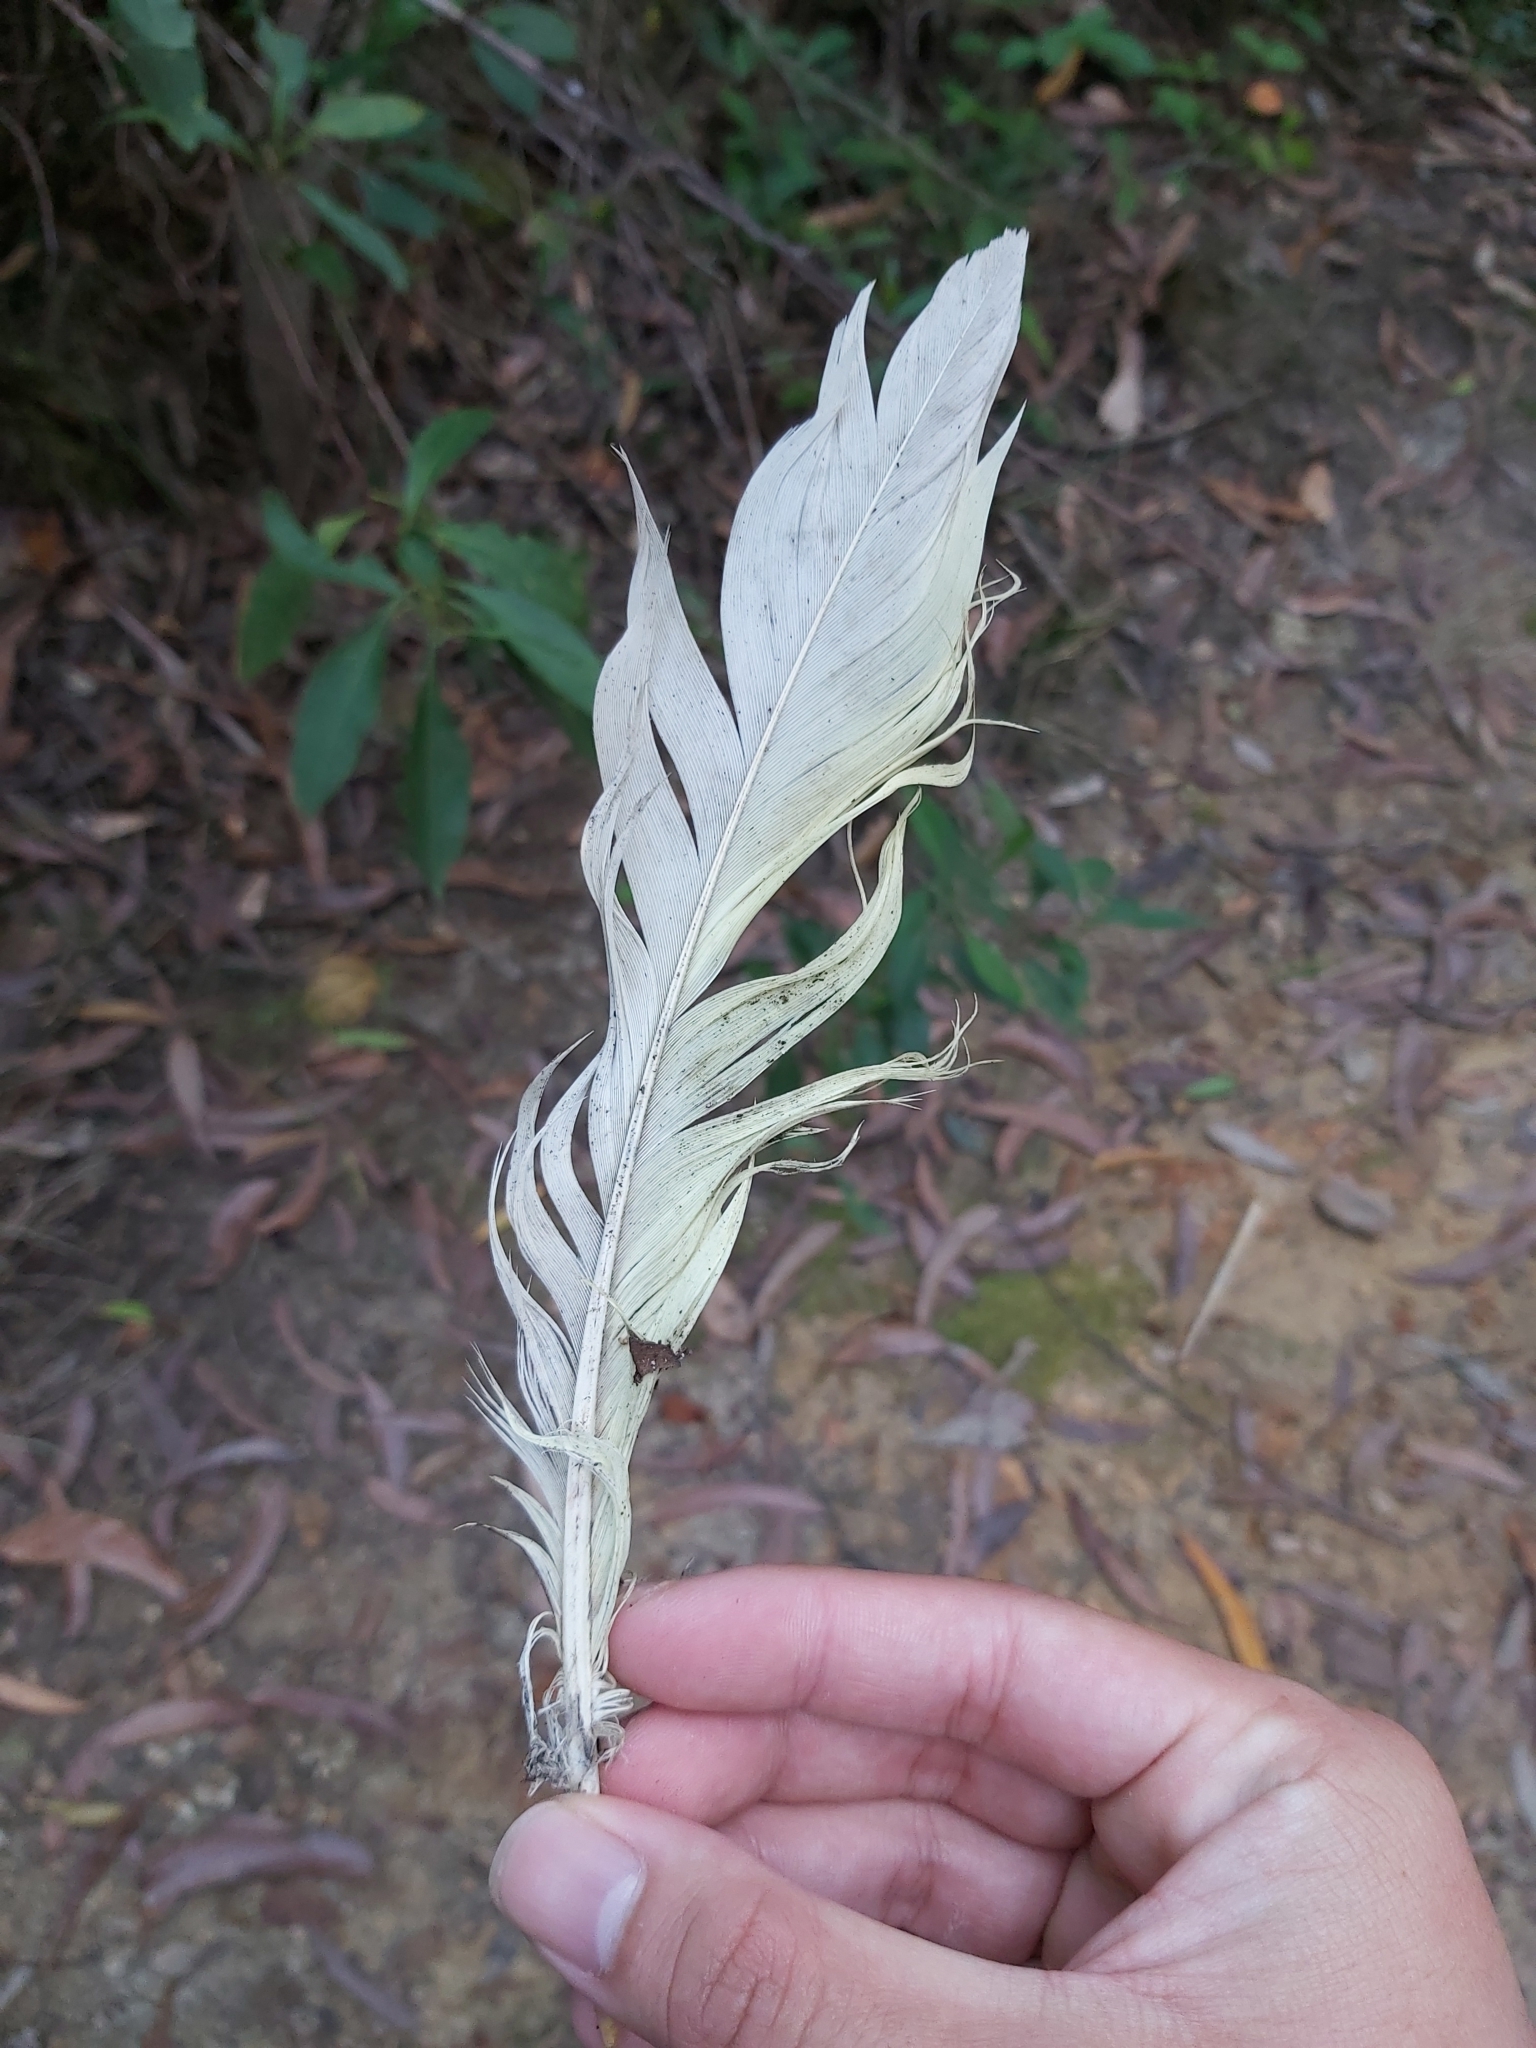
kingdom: Animalia
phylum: Chordata
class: Aves
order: Psittaciformes
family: Psittacidae
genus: Cacatua
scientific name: Cacatua galerita
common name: Sulphur-crested cockatoo
